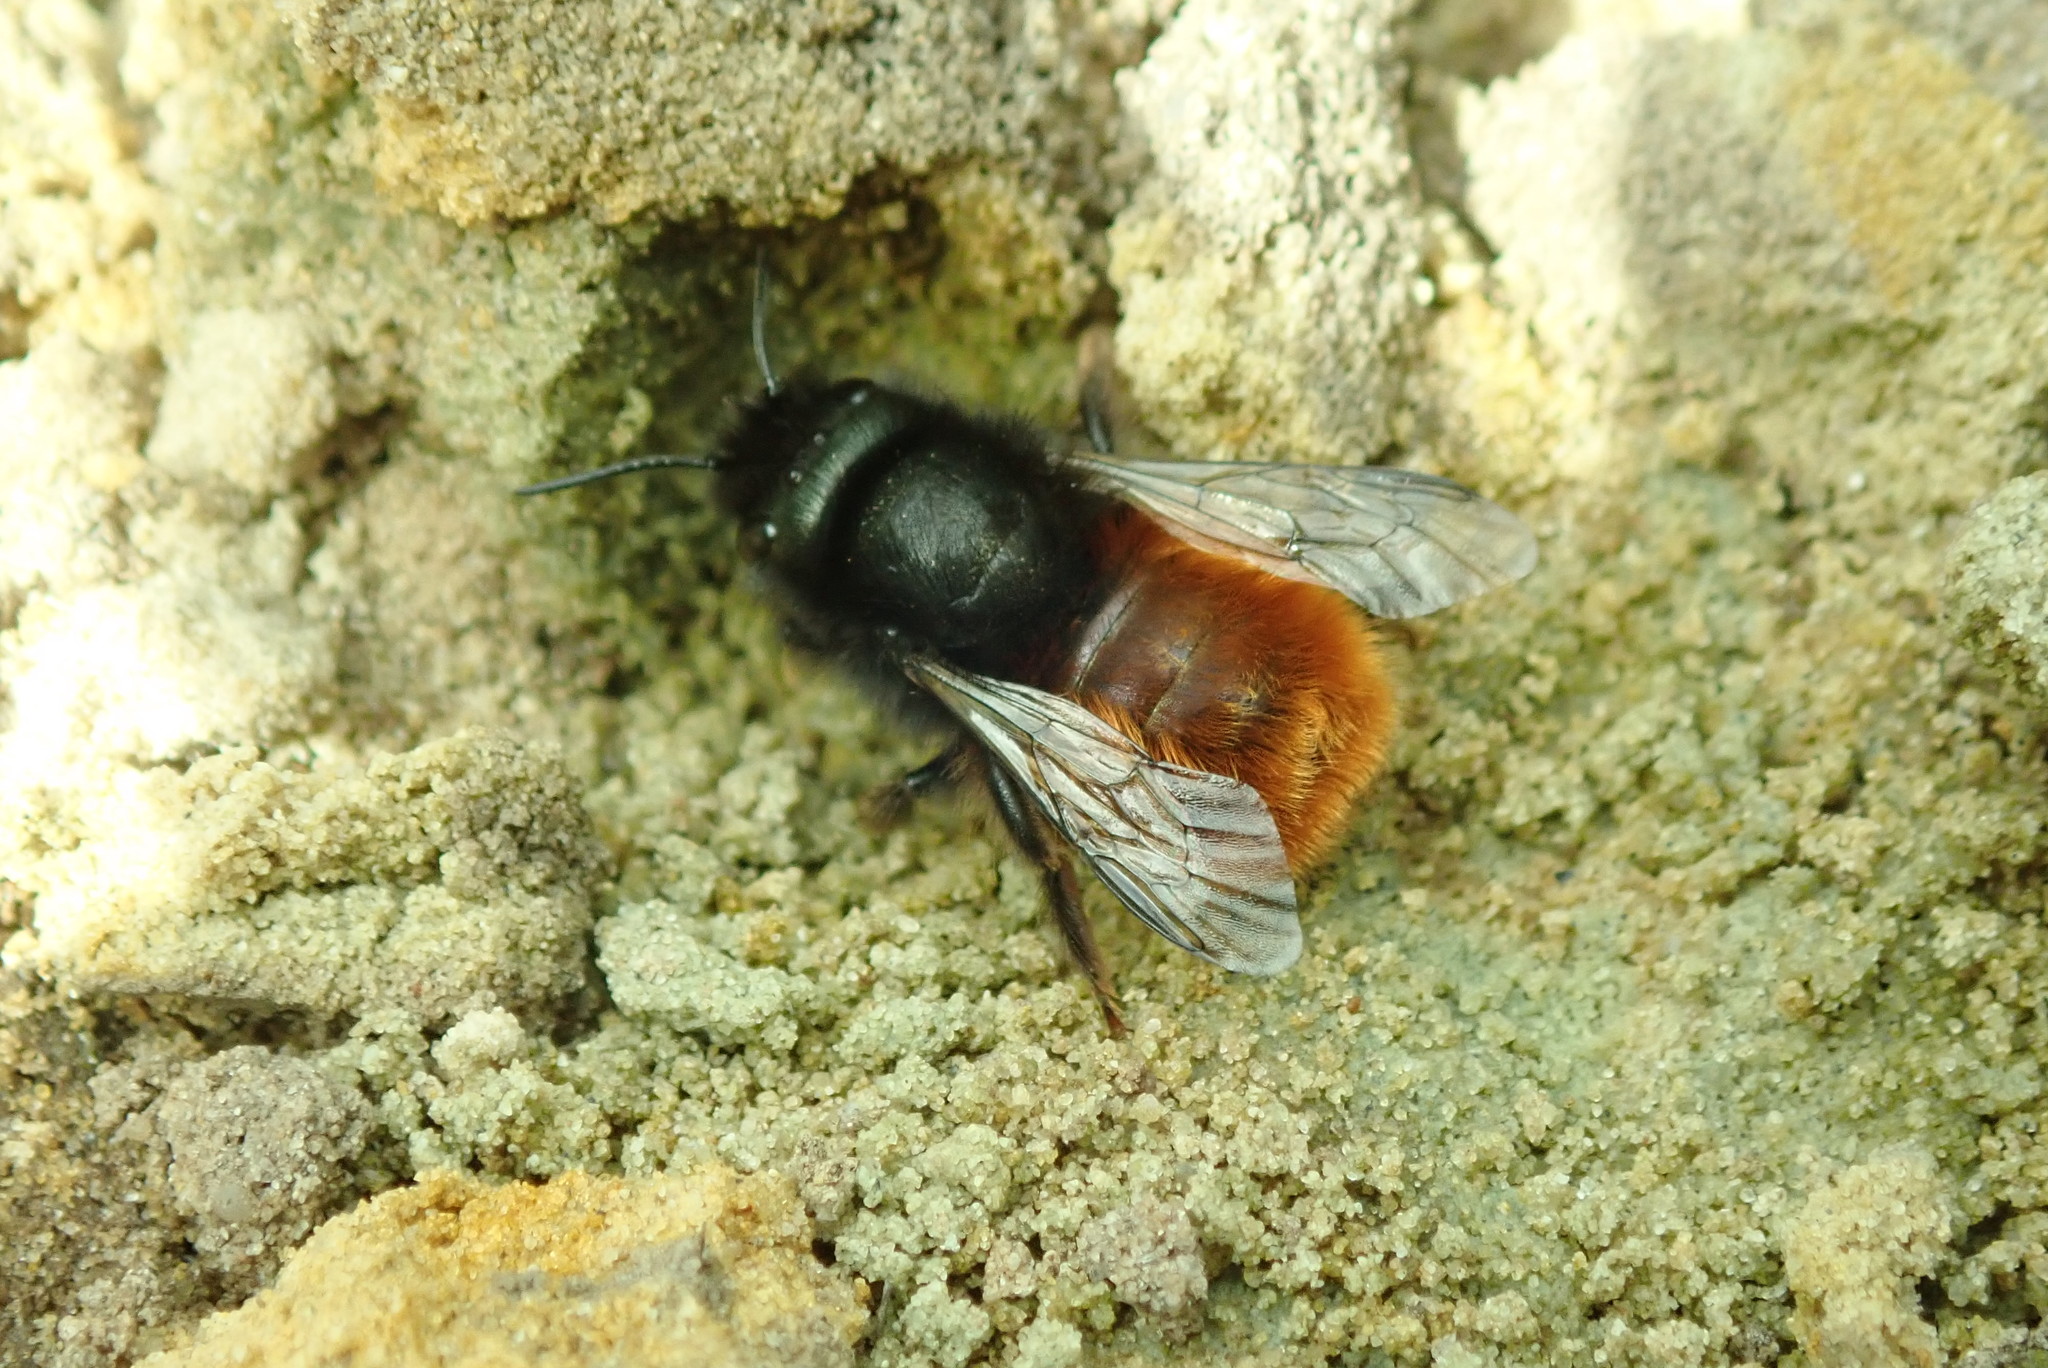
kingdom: Animalia
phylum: Arthropoda
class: Insecta
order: Hymenoptera
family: Megachilidae
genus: Osmia
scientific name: Osmia cornuta
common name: Mason bee
